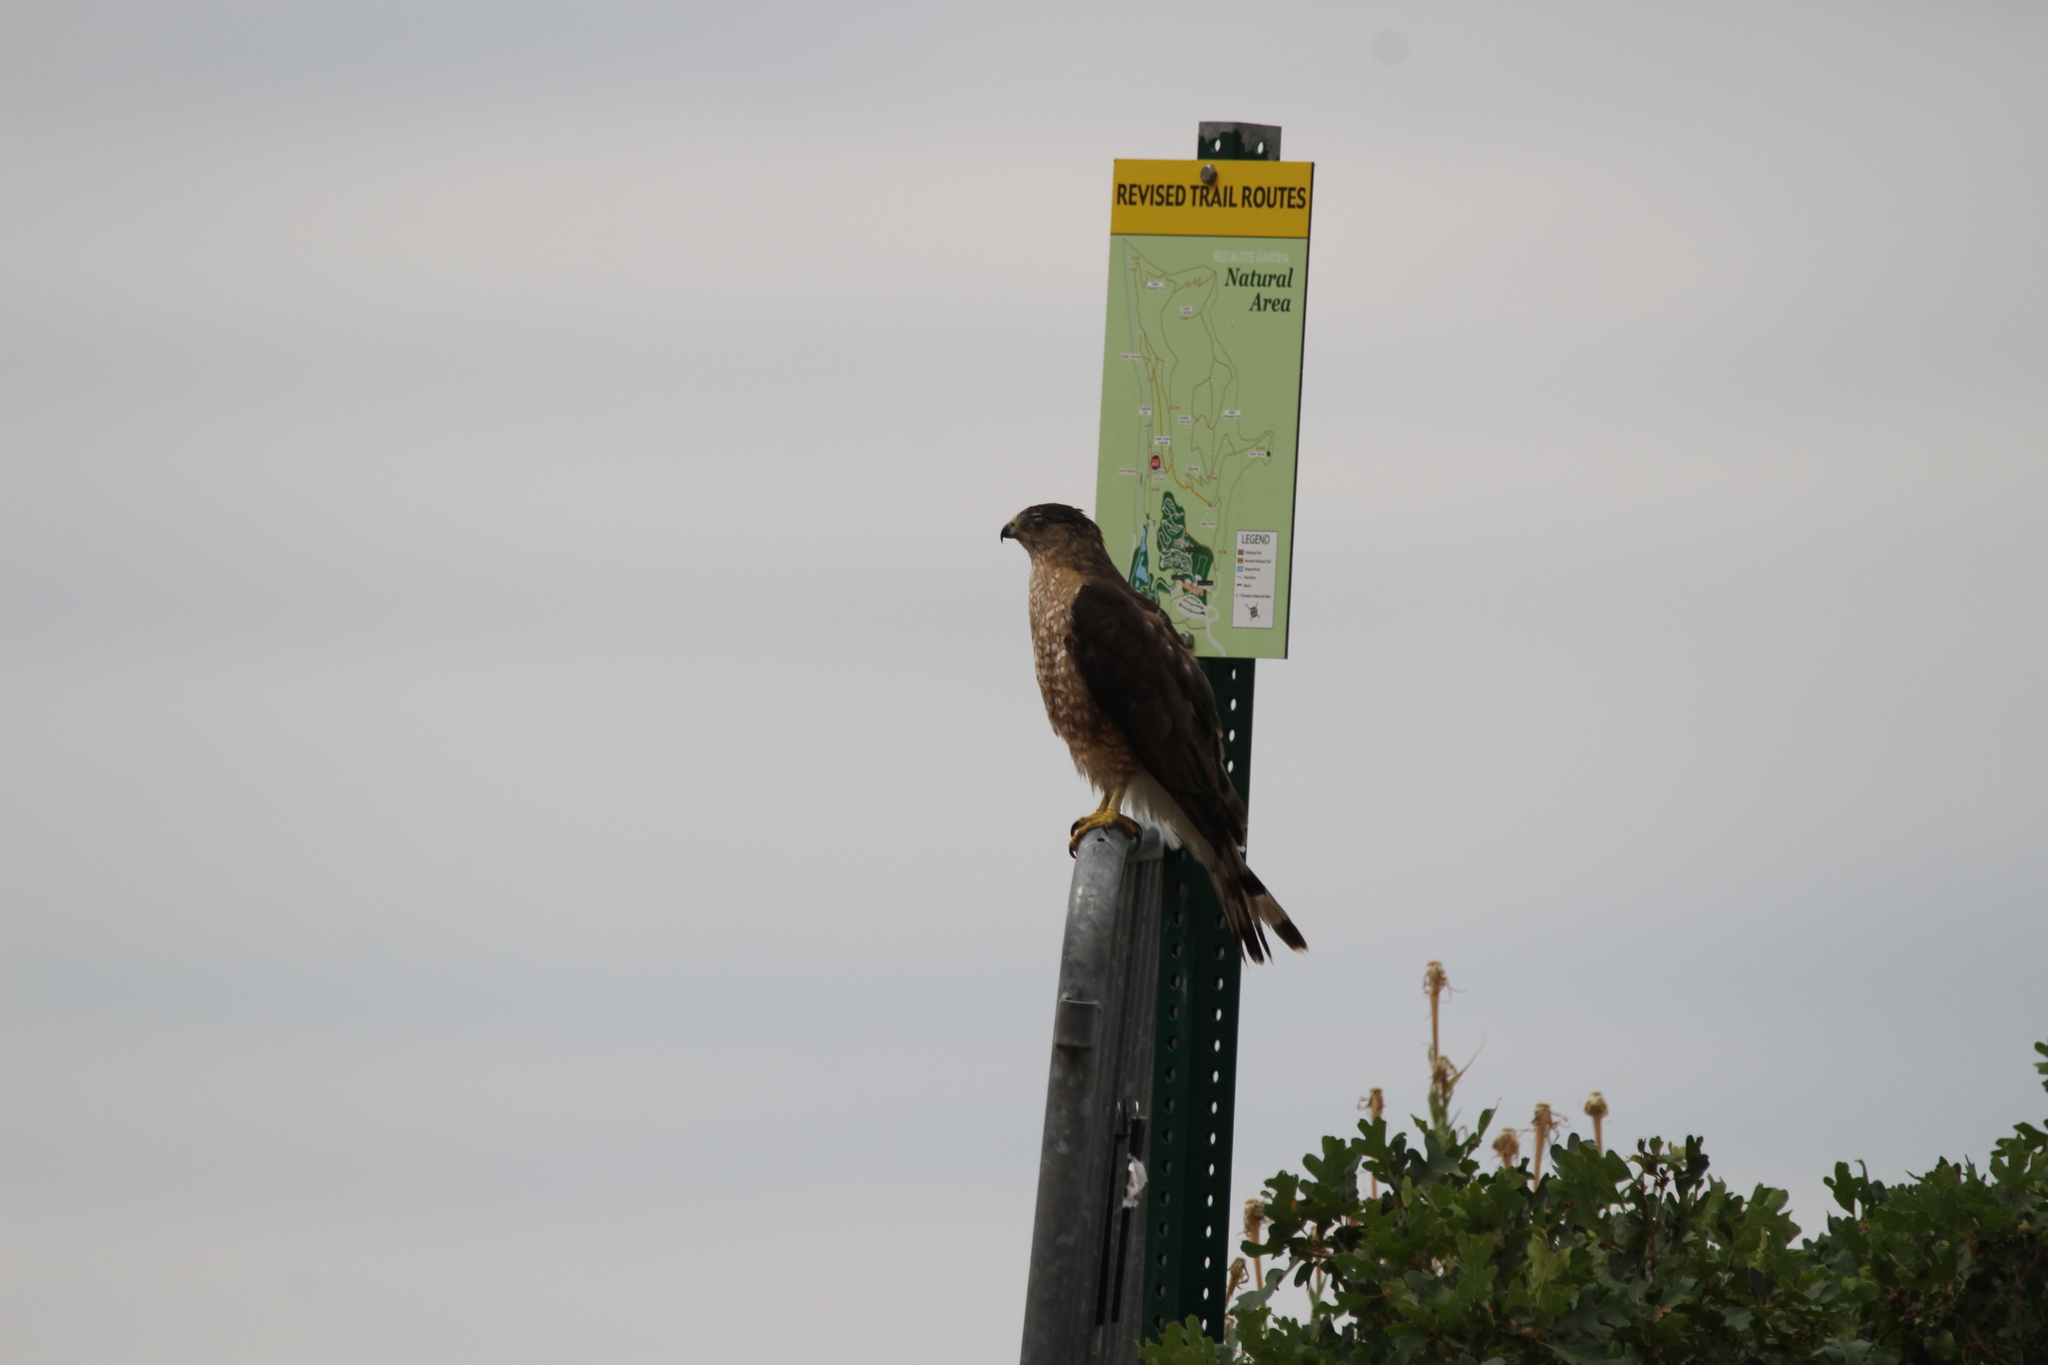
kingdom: Animalia
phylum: Chordata
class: Aves
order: Accipitriformes
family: Accipitridae
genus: Accipiter
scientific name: Accipiter cooperii
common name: Cooper's hawk
